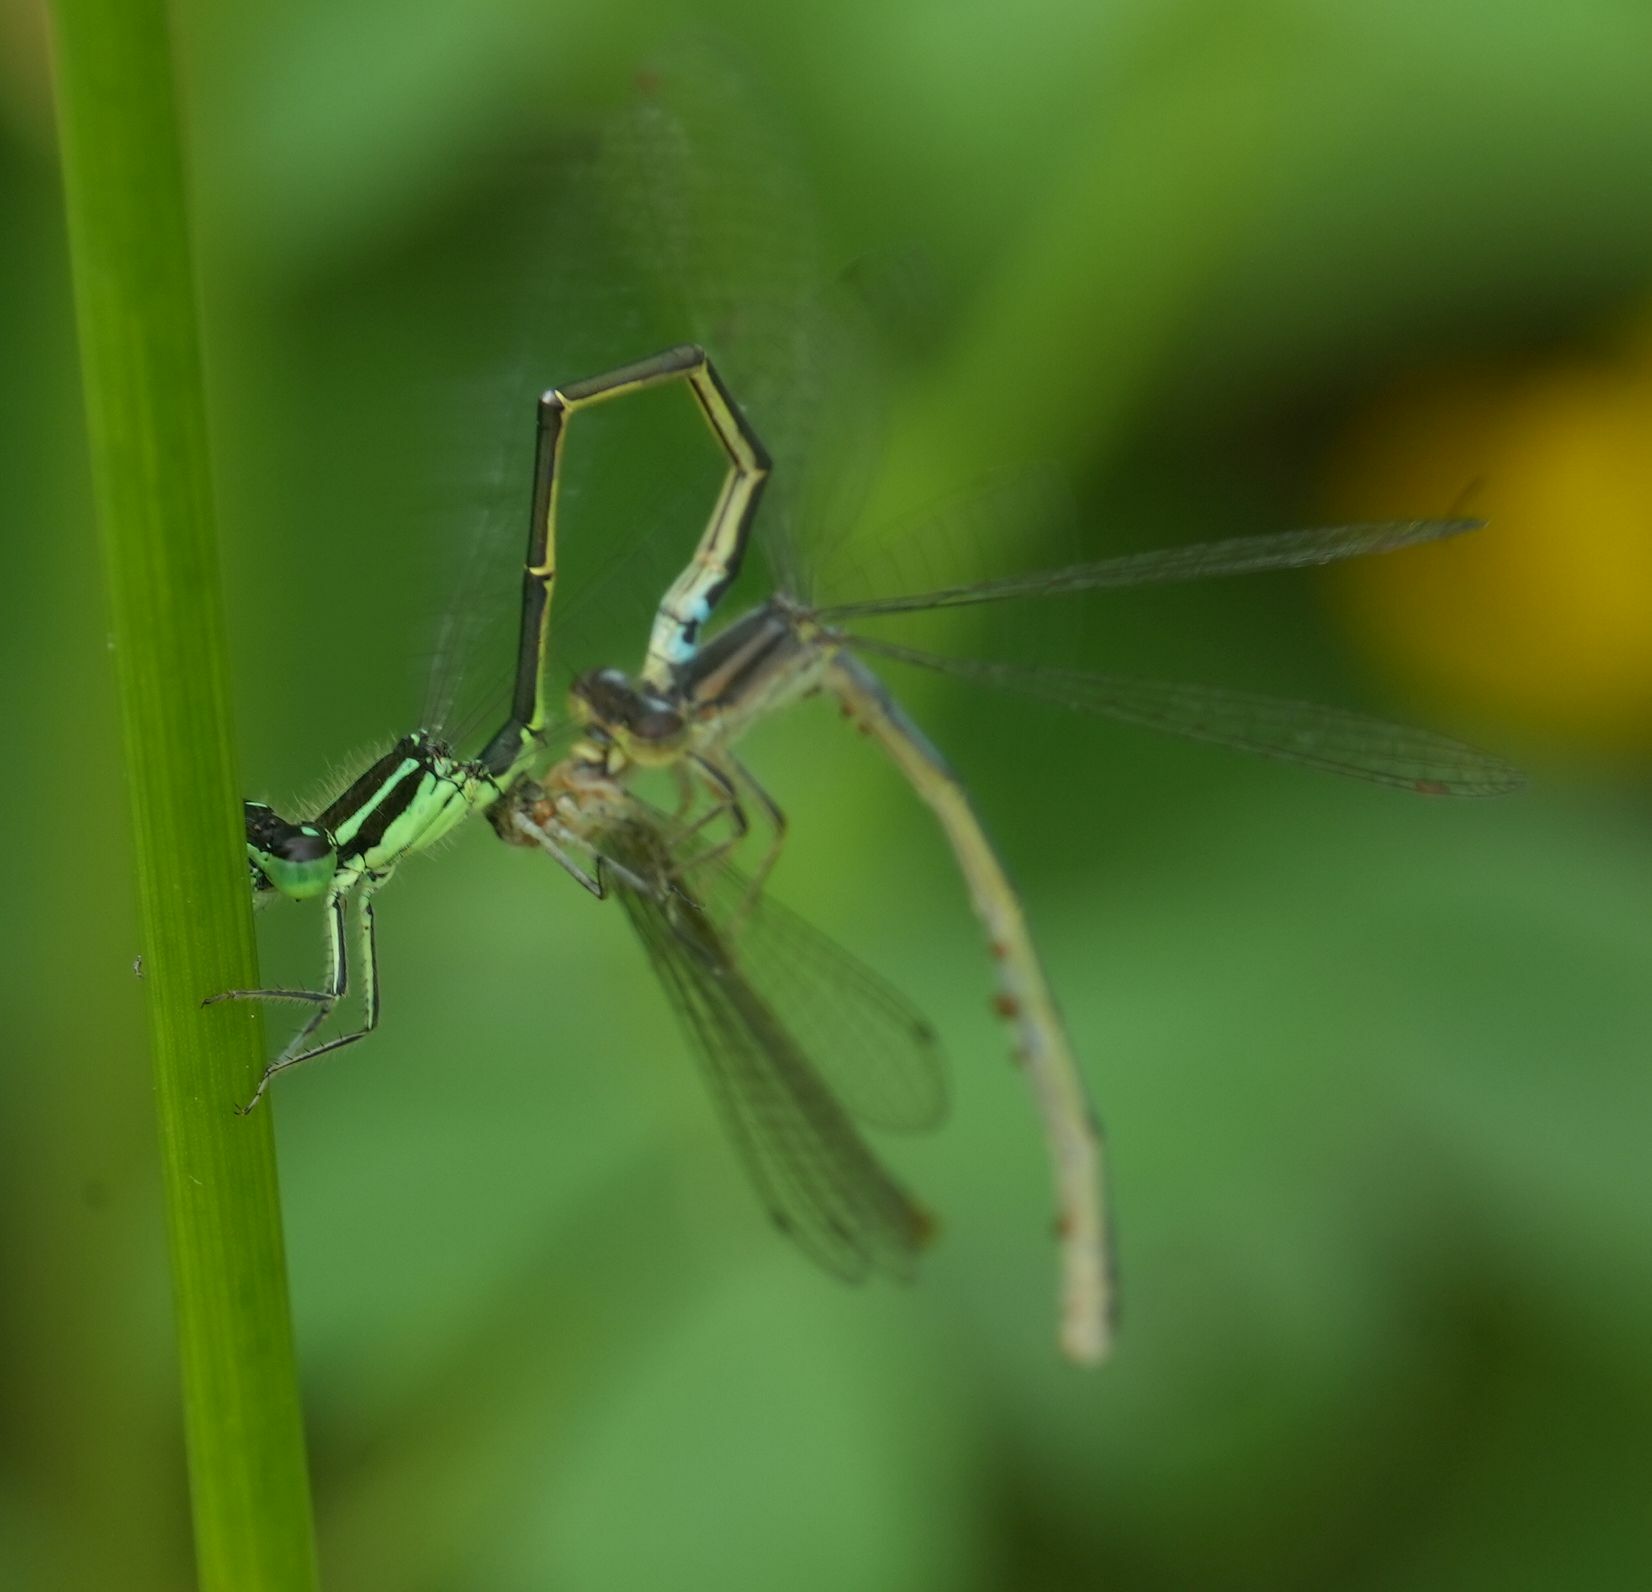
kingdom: Animalia
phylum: Arthropoda
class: Insecta
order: Odonata
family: Coenagrionidae
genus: Ischnura
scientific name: Ischnura verticalis
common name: Eastern forktail
